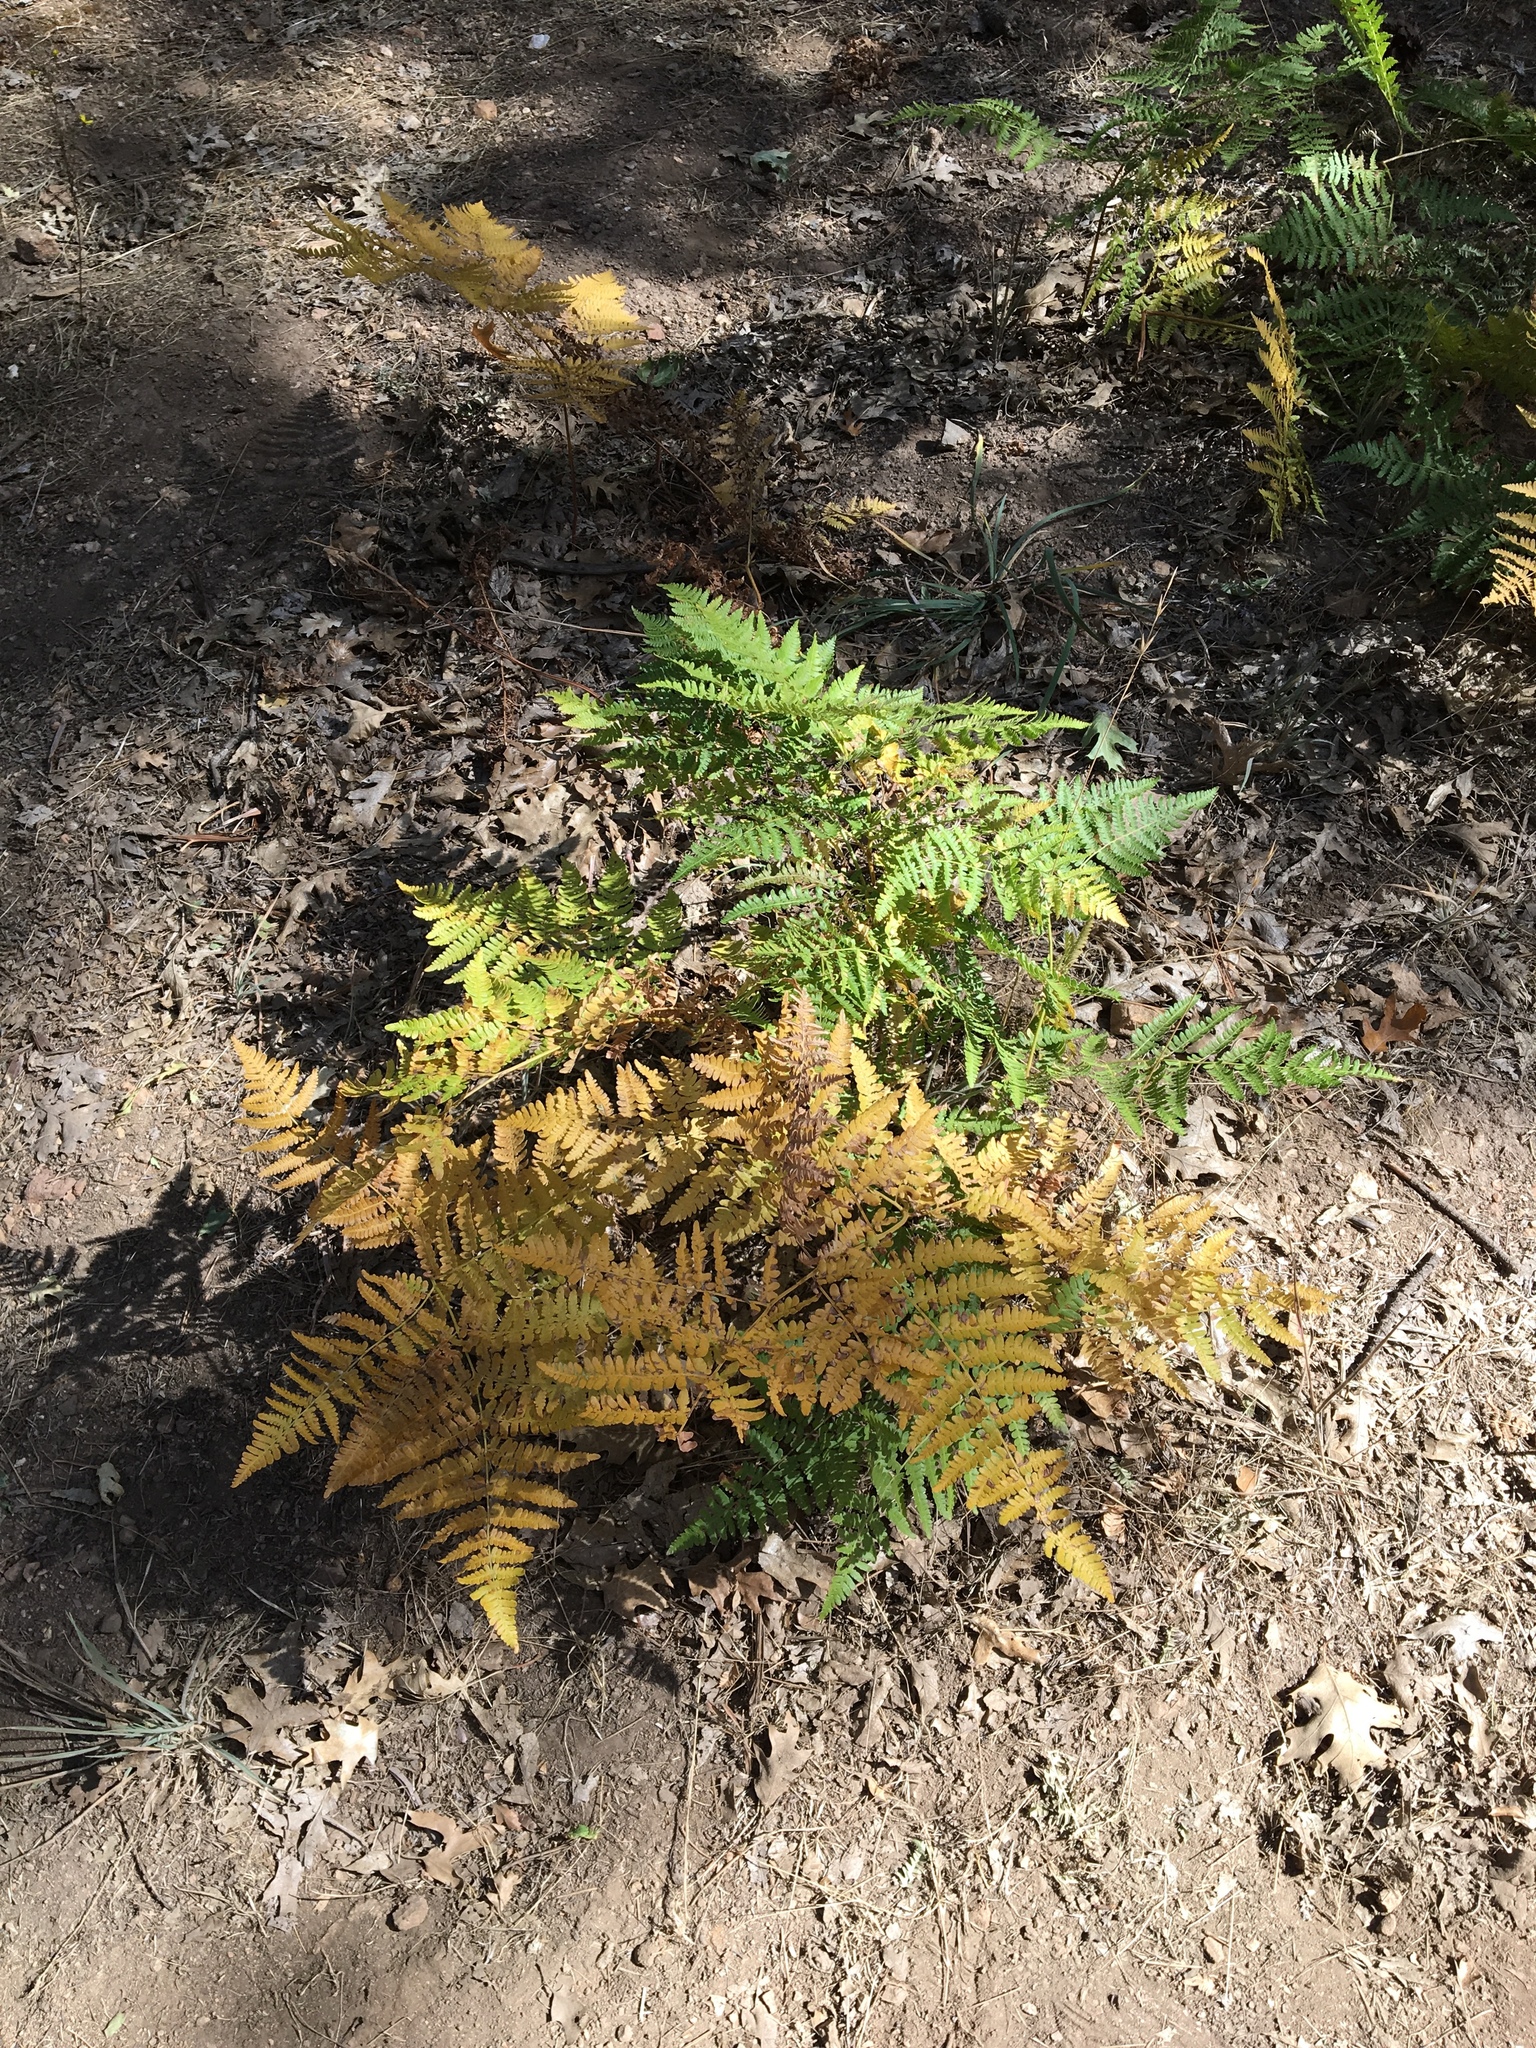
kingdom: Plantae
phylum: Tracheophyta
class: Polypodiopsida
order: Polypodiales
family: Dennstaedtiaceae
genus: Pteridium
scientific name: Pteridium aquilinum
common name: Bracken
